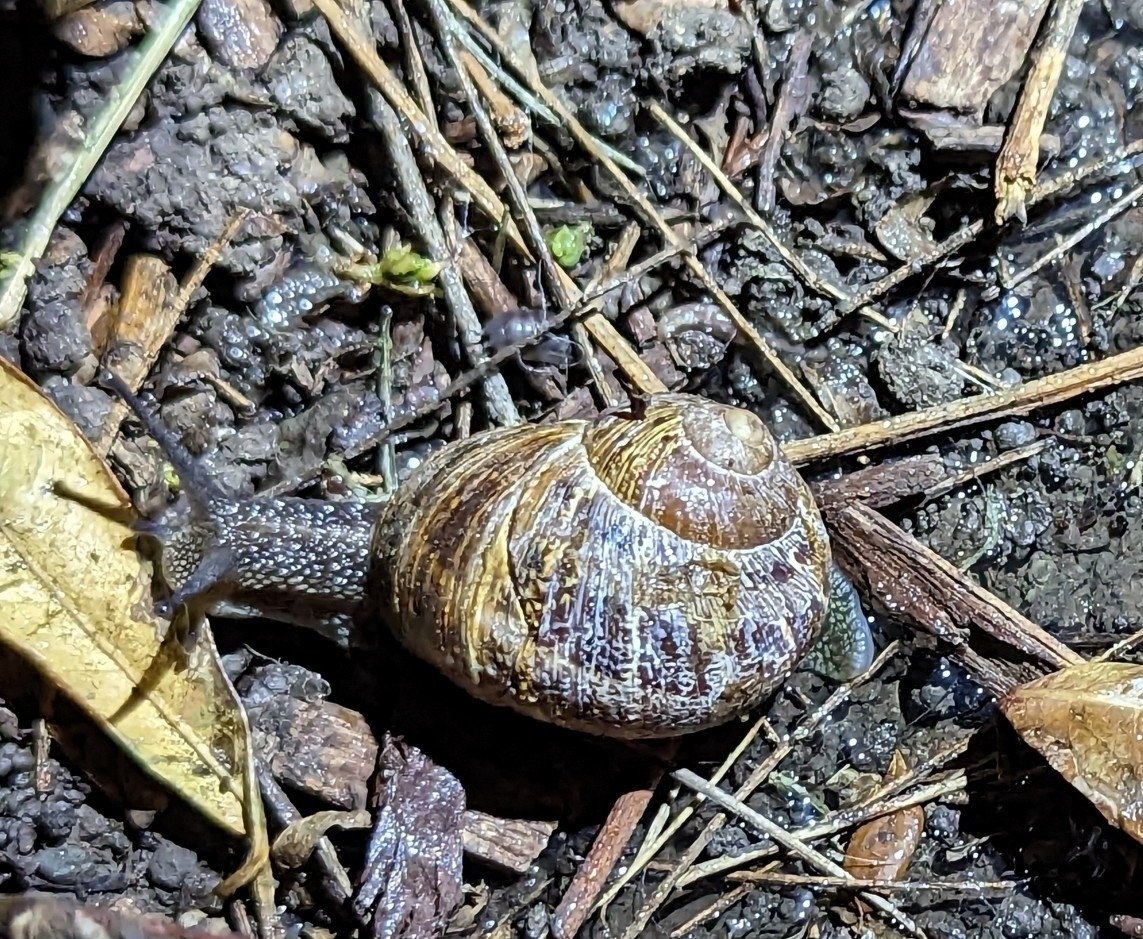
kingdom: Animalia
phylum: Mollusca
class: Gastropoda
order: Stylommatophora
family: Helicidae
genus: Cornu
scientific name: Cornu aspersum
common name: Brown garden snail
